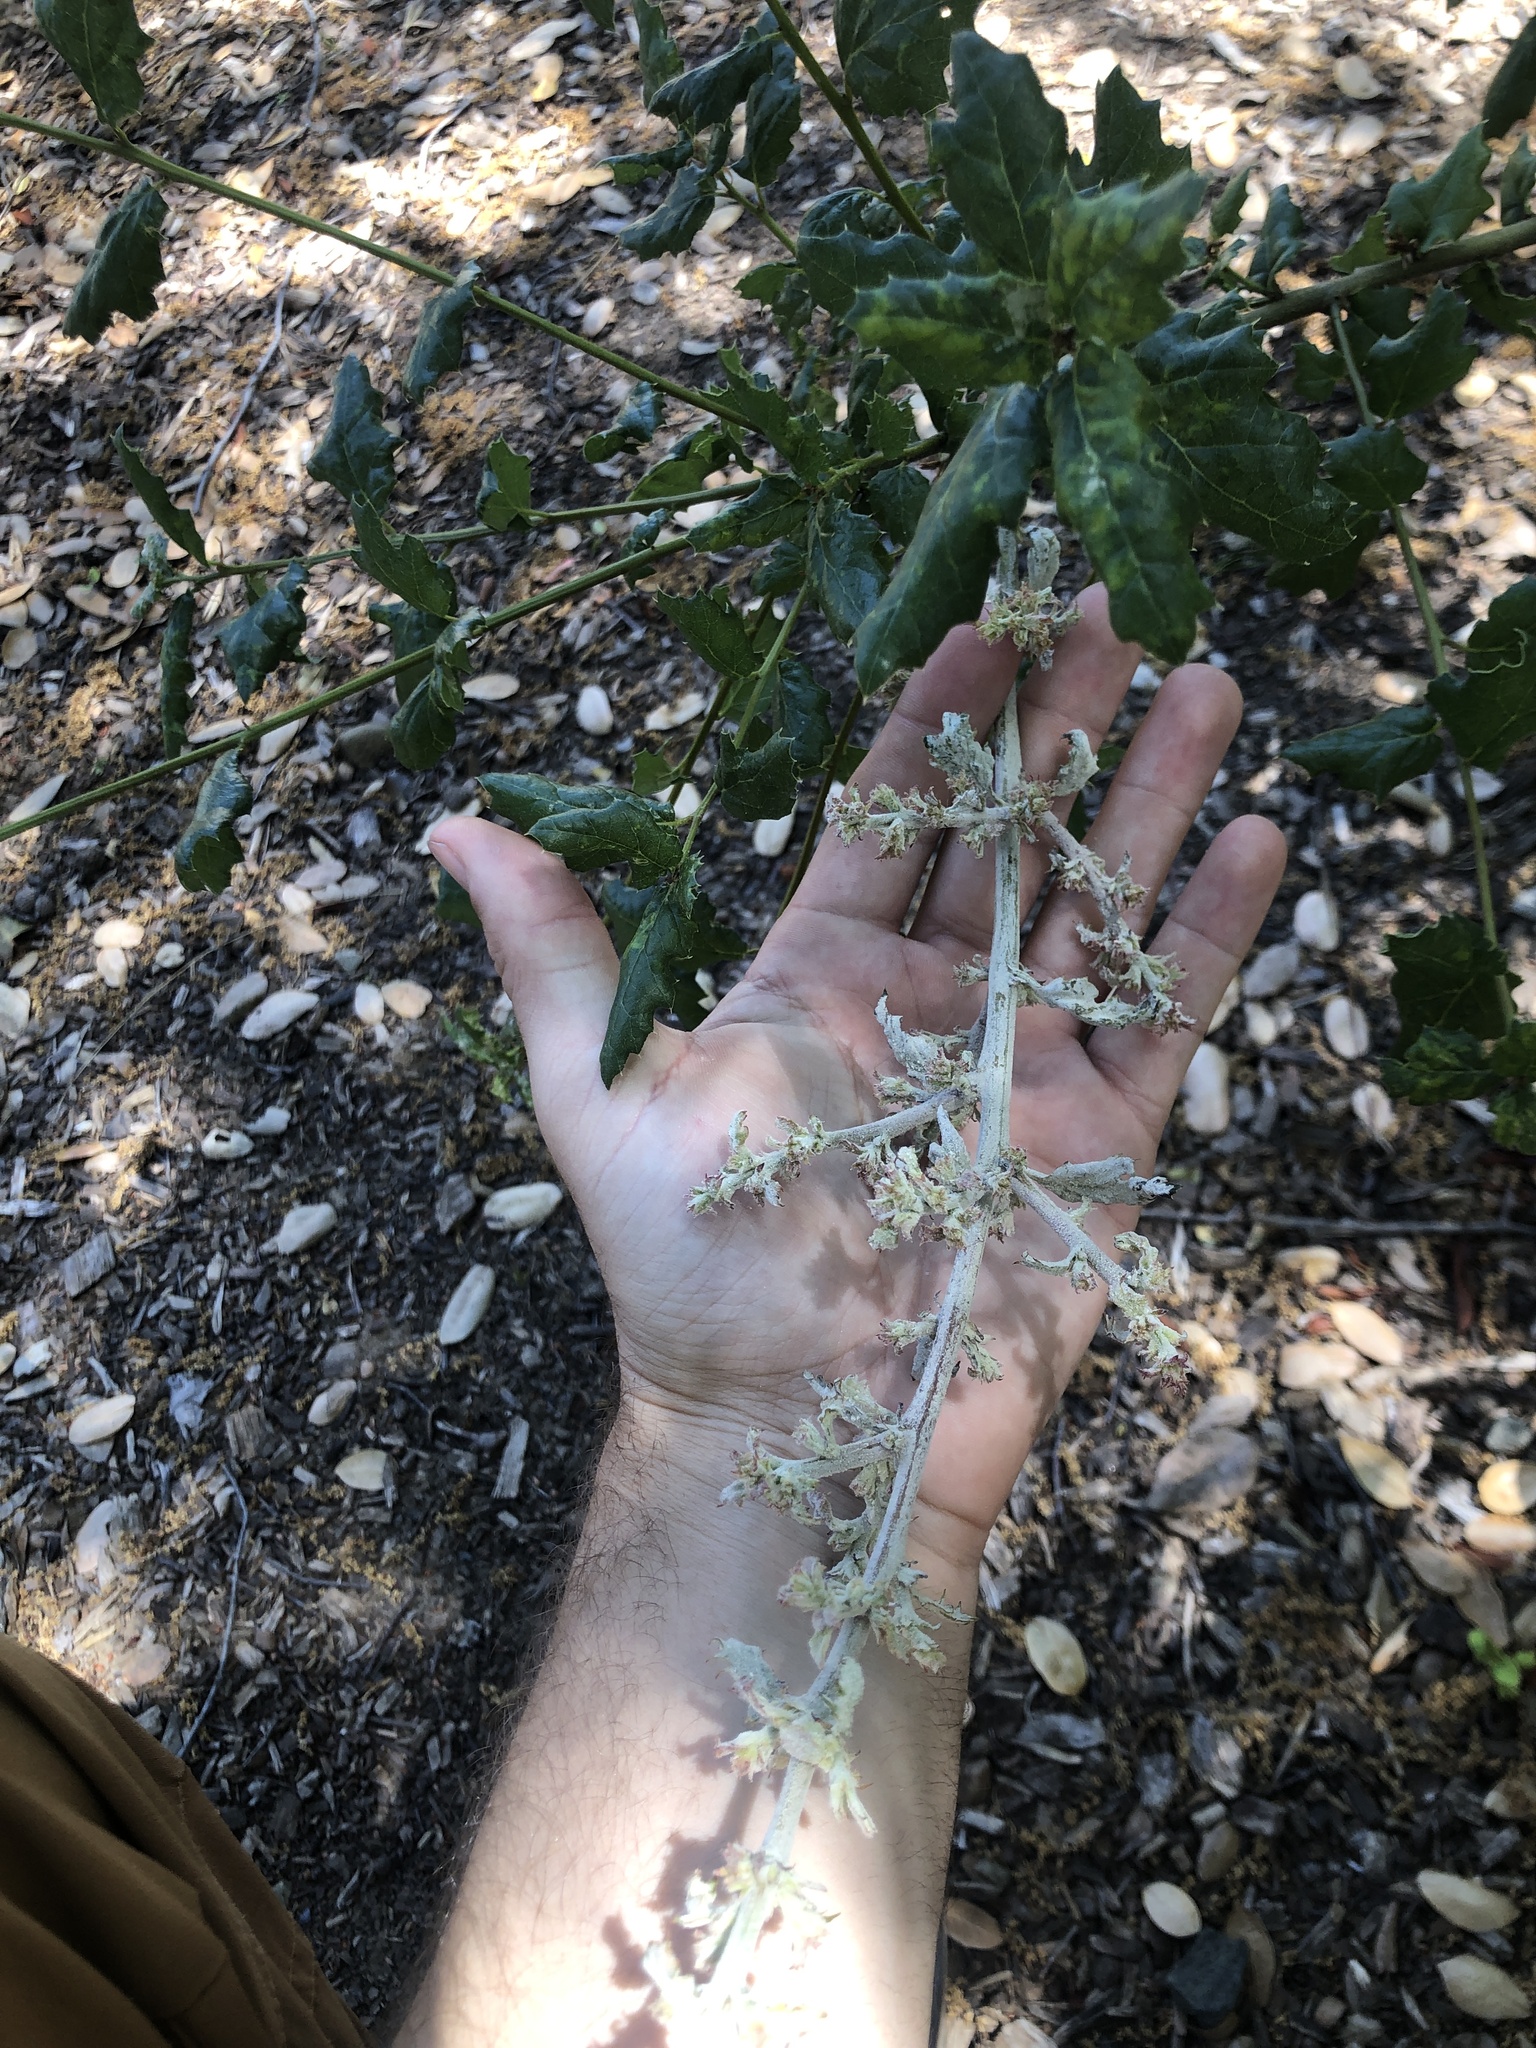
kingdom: Fungi
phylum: Ascomycota
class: Leotiomycetes
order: Helotiales
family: Erysiphaceae
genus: Cystotheca
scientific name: Cystotheca lanestris
